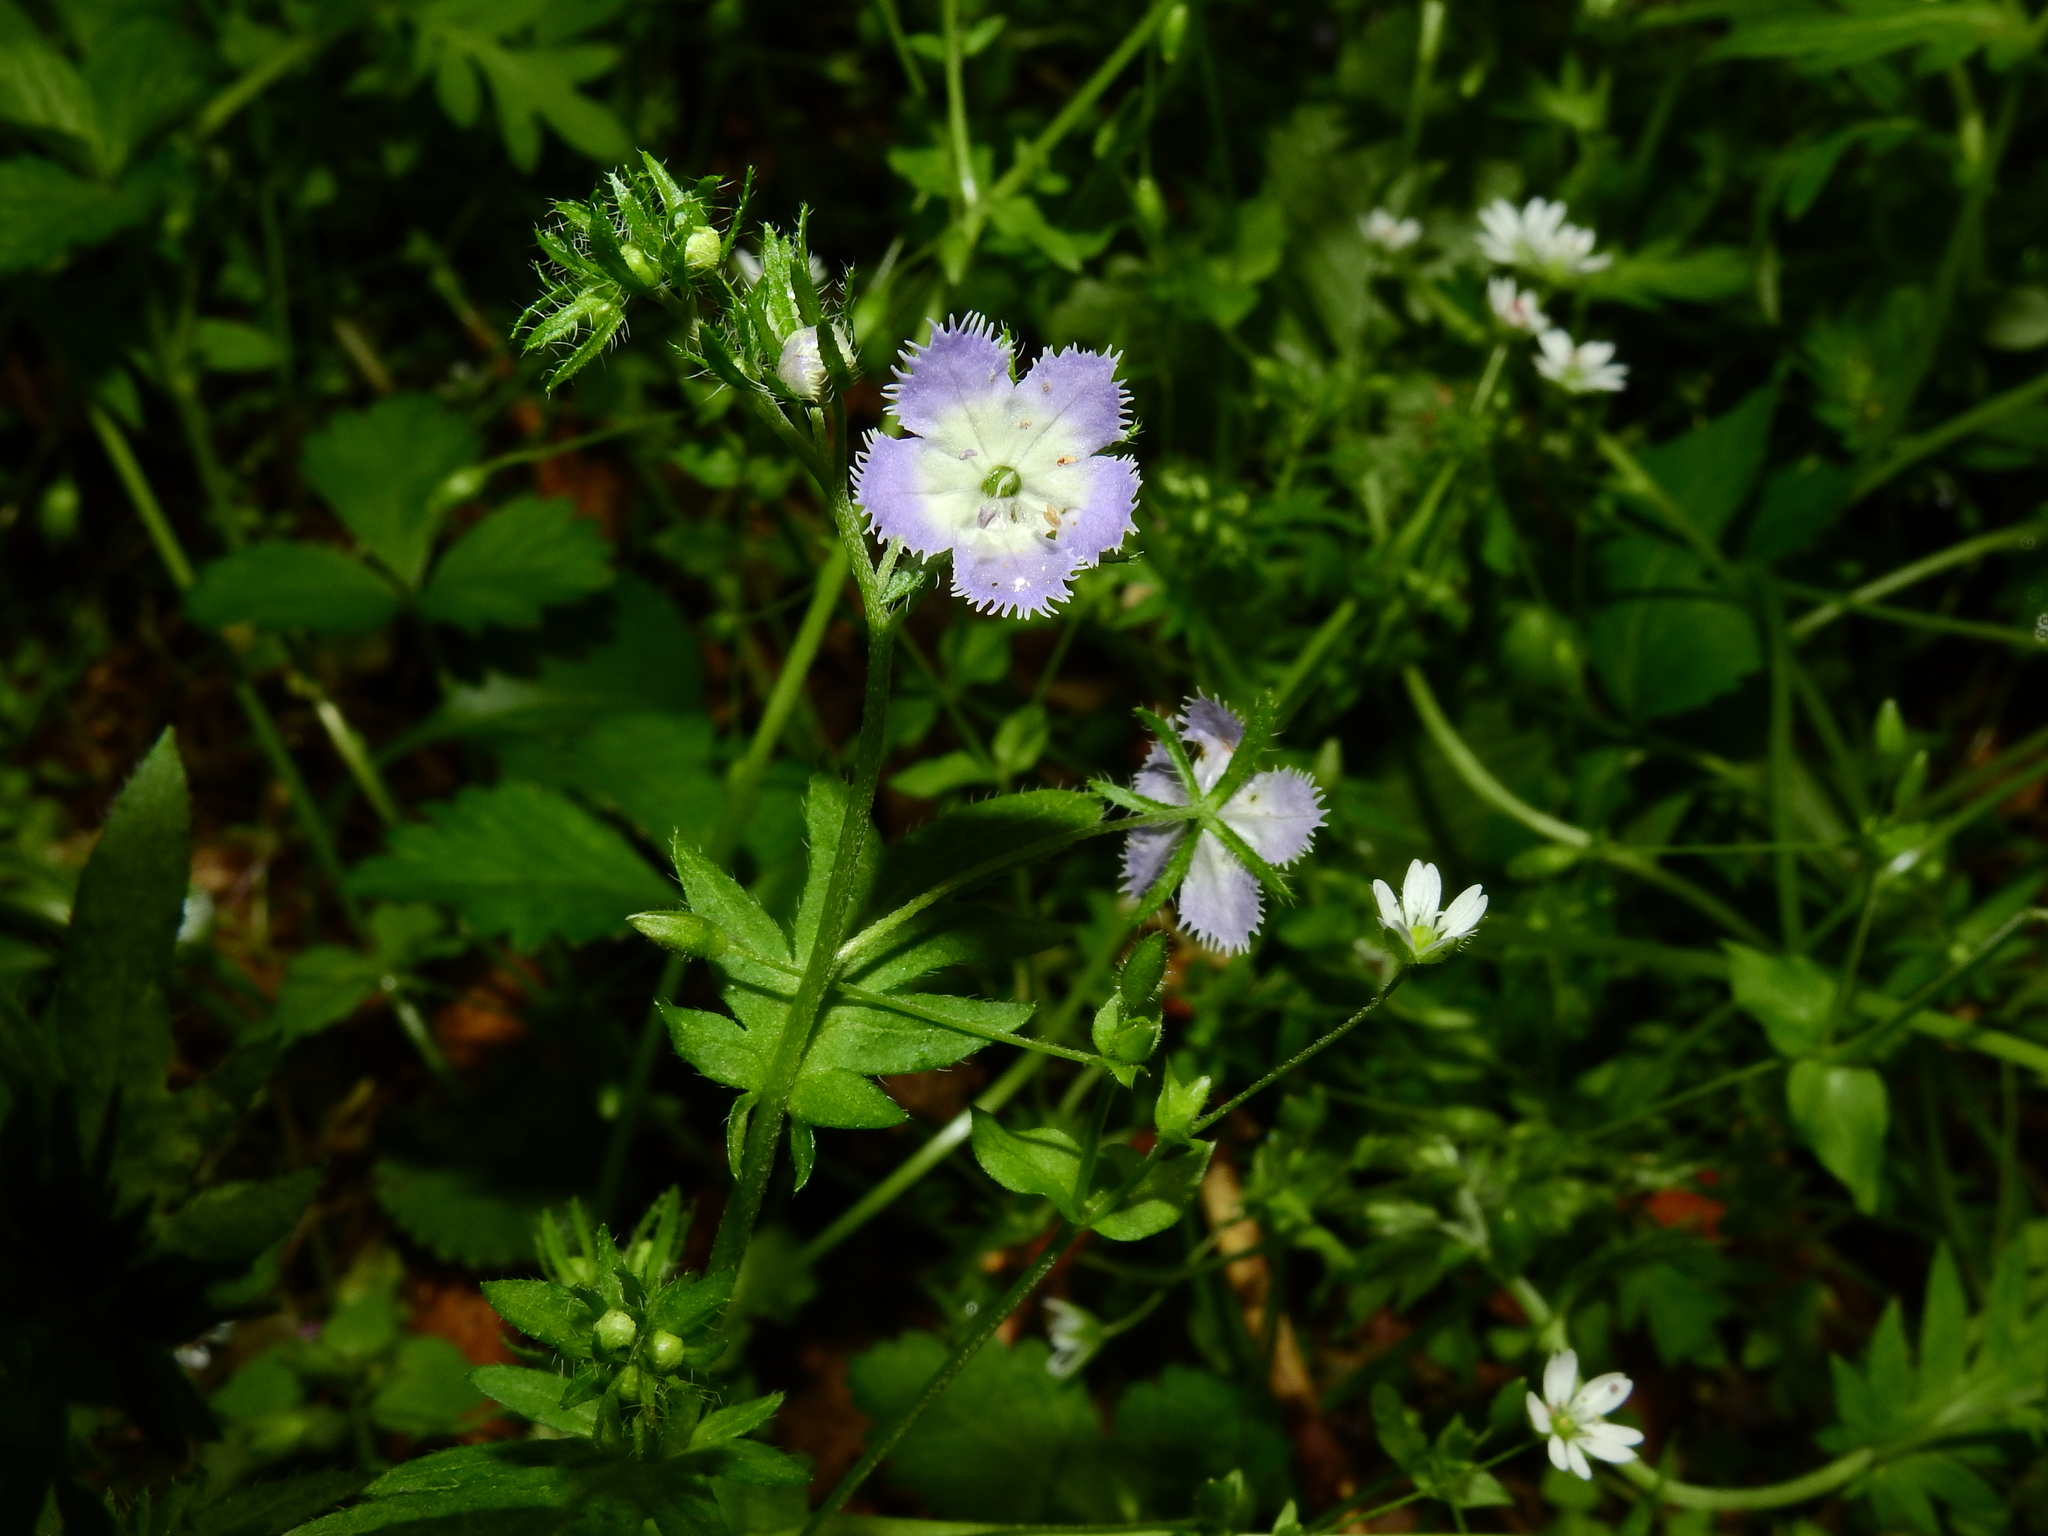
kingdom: Plantae
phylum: Tracheophyta
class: Magnoliopsida
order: Boraginales
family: Hydrophyllaceae
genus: Phacelia
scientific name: Phacelia purshii
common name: Miami-mist
